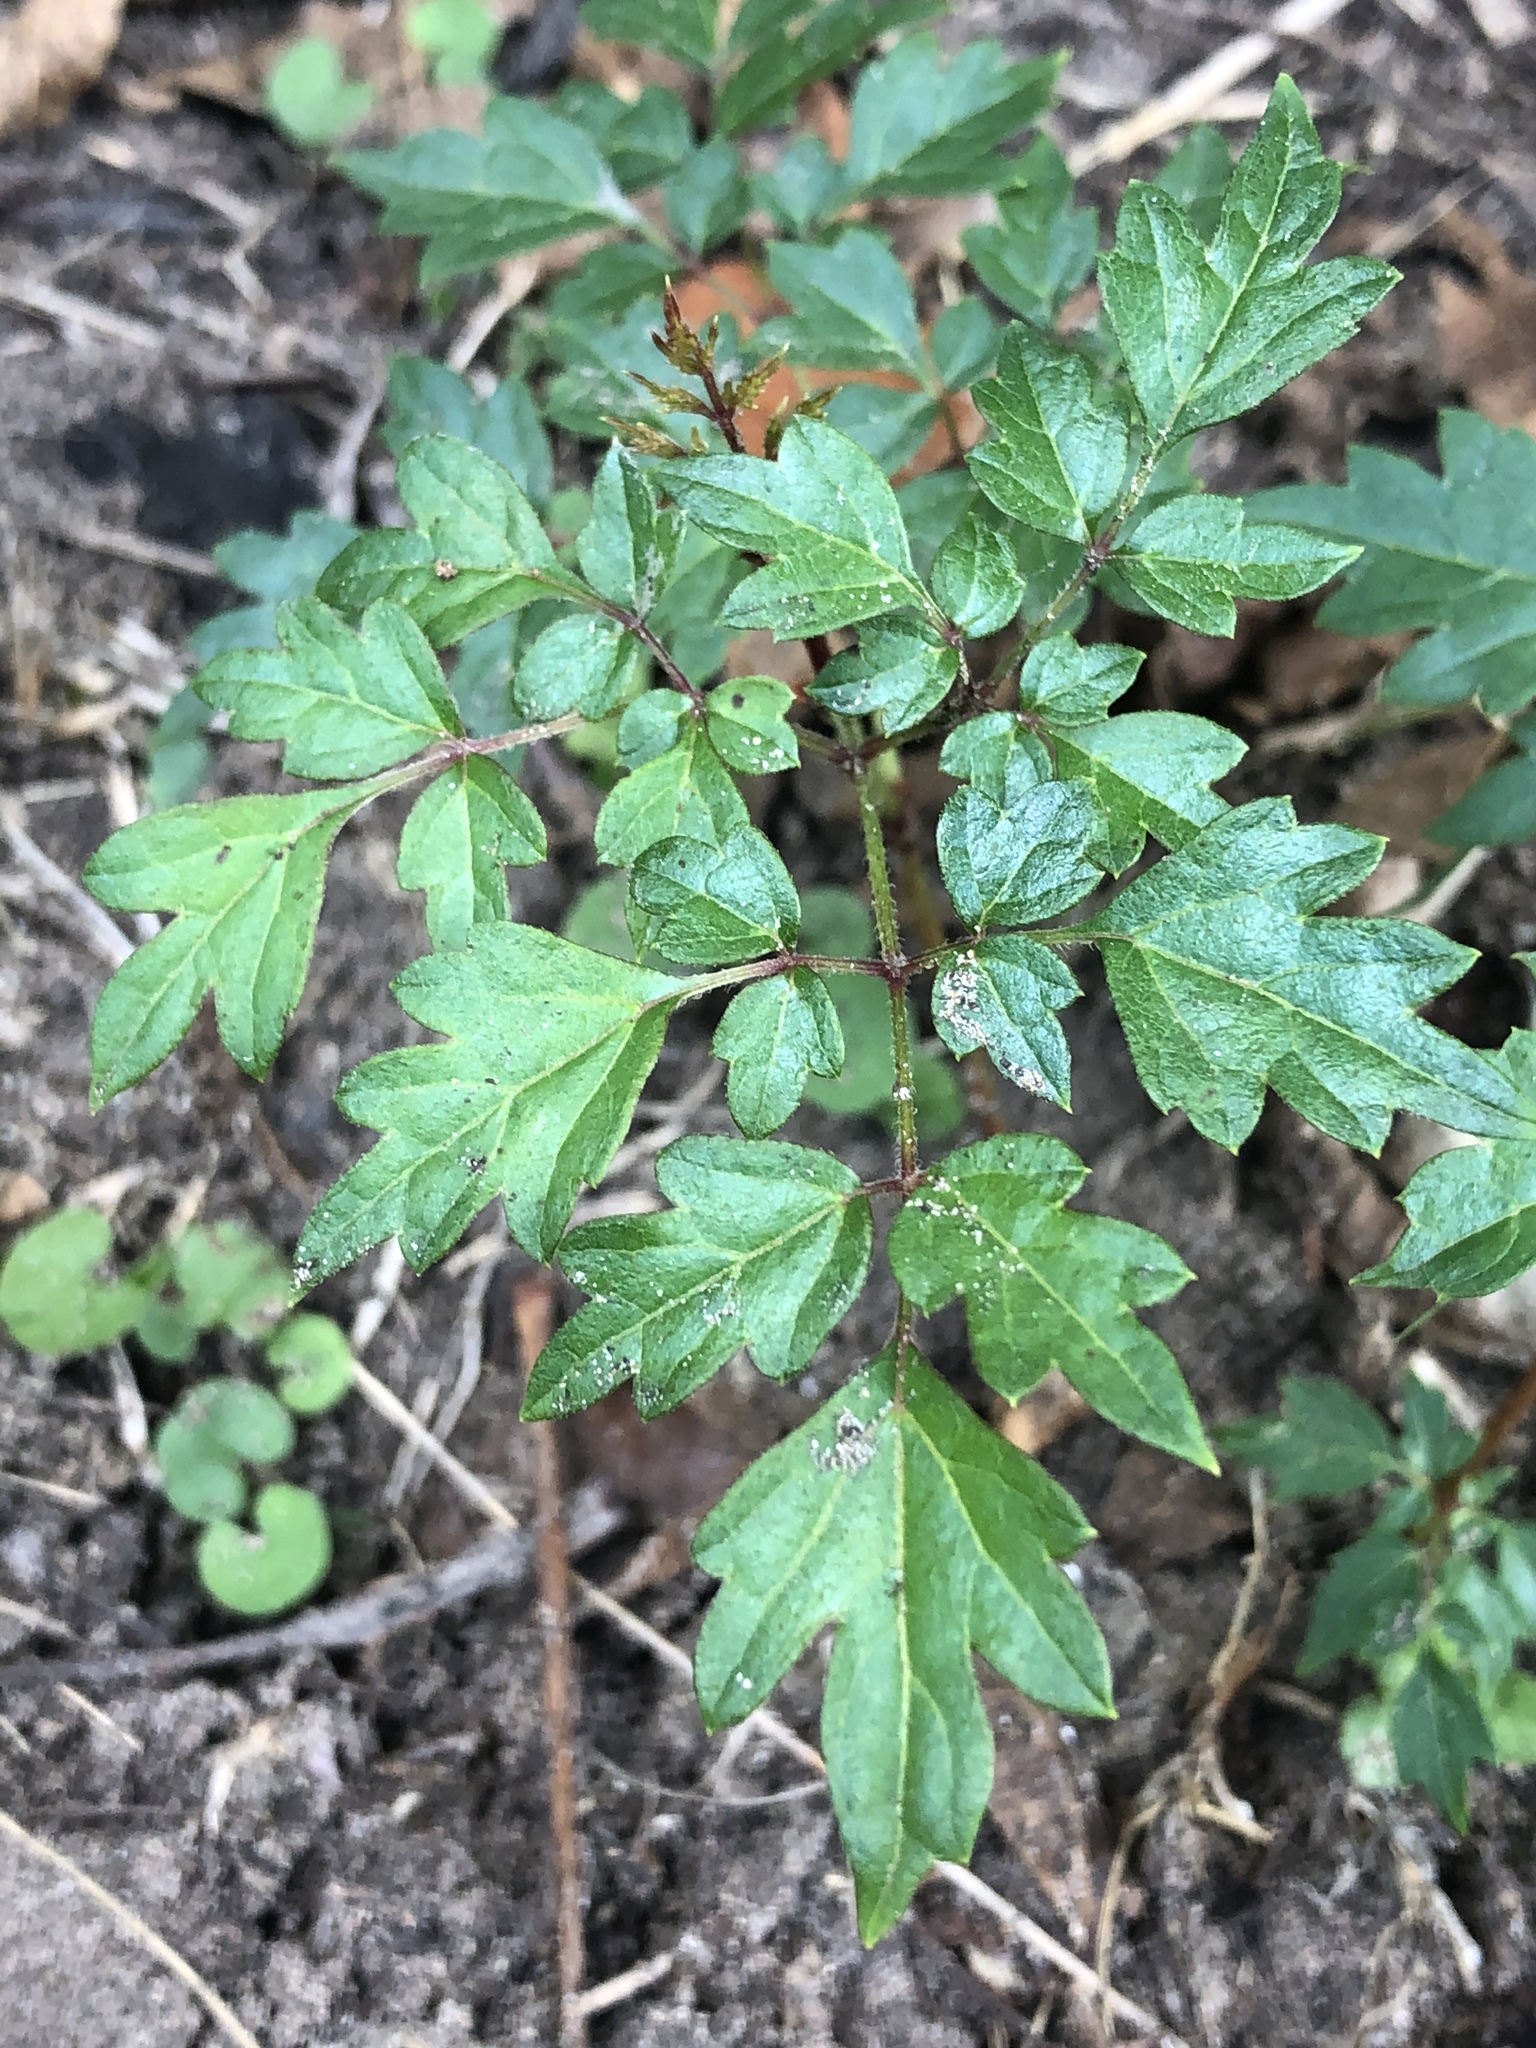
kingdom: Plantae
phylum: Tracheophyta
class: Magnoliopsida
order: Vitales
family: Vitaceae
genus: Nekemias
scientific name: Nekemias arborea
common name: Peppervine
